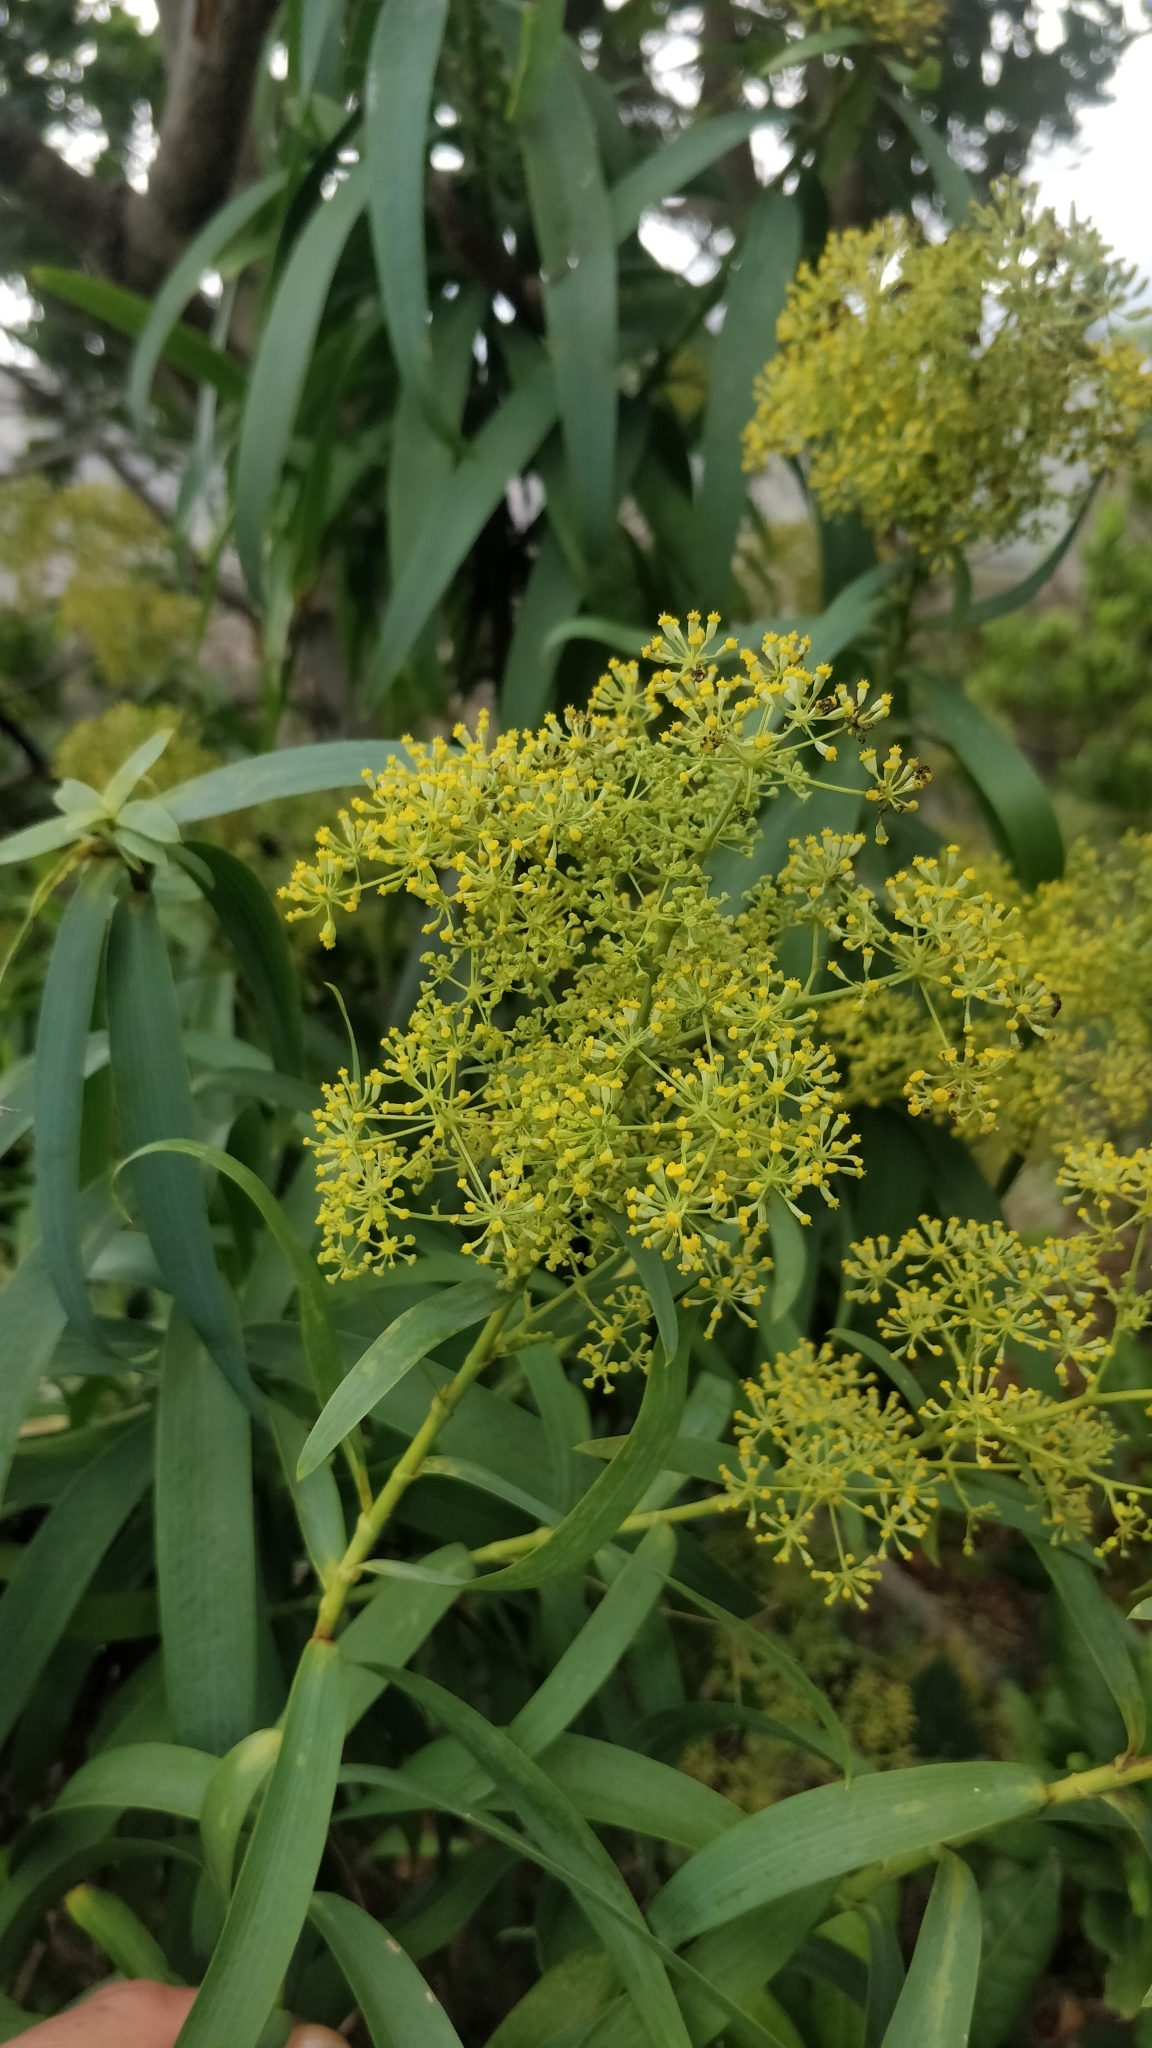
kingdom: Plantae
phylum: Tracheophyta
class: Magnoliopsida
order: Apiales
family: Apiaceae
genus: Bupleurum
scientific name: Bupleurum salicifolium
